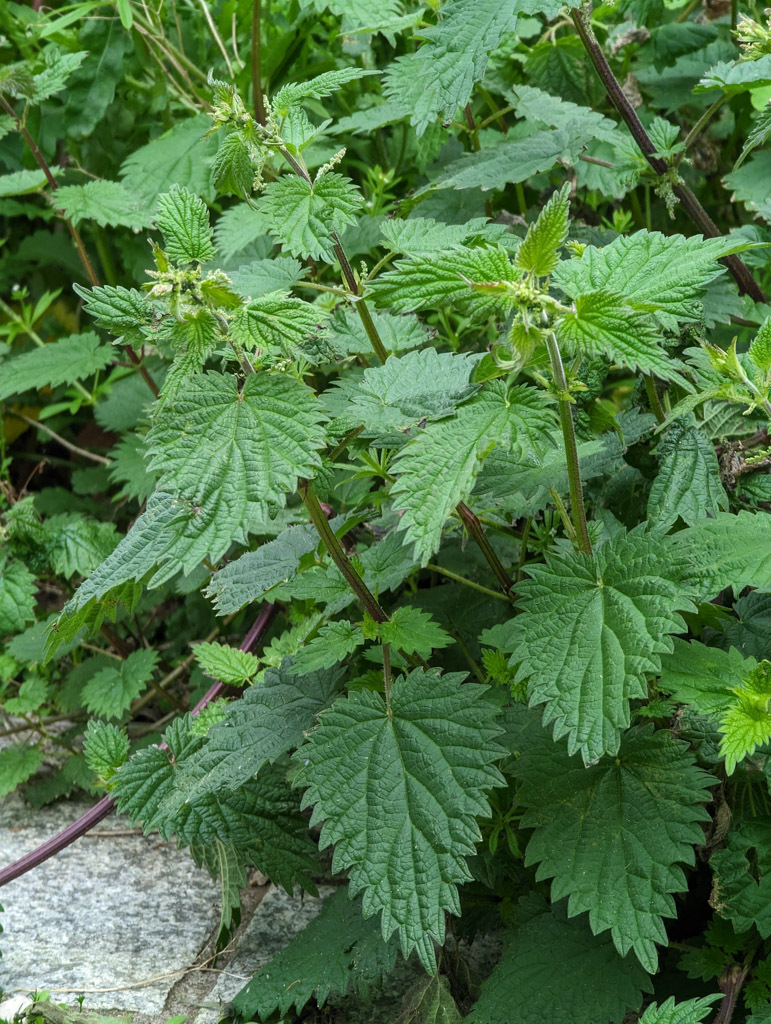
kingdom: Plantae
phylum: Tracheophyta
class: Magnoliopsida
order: Rosales
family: Urticaceae
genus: Urtica
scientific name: Urtica dioica
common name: Common nettle
